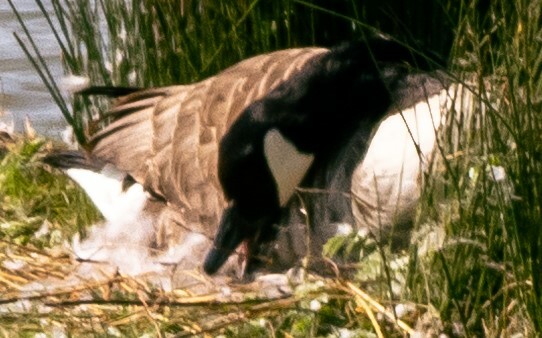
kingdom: Animalia
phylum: Chordata
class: Aves
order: Anseriformes
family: Anatidae
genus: Branta
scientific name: Branta canadensis
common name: Canada goose
